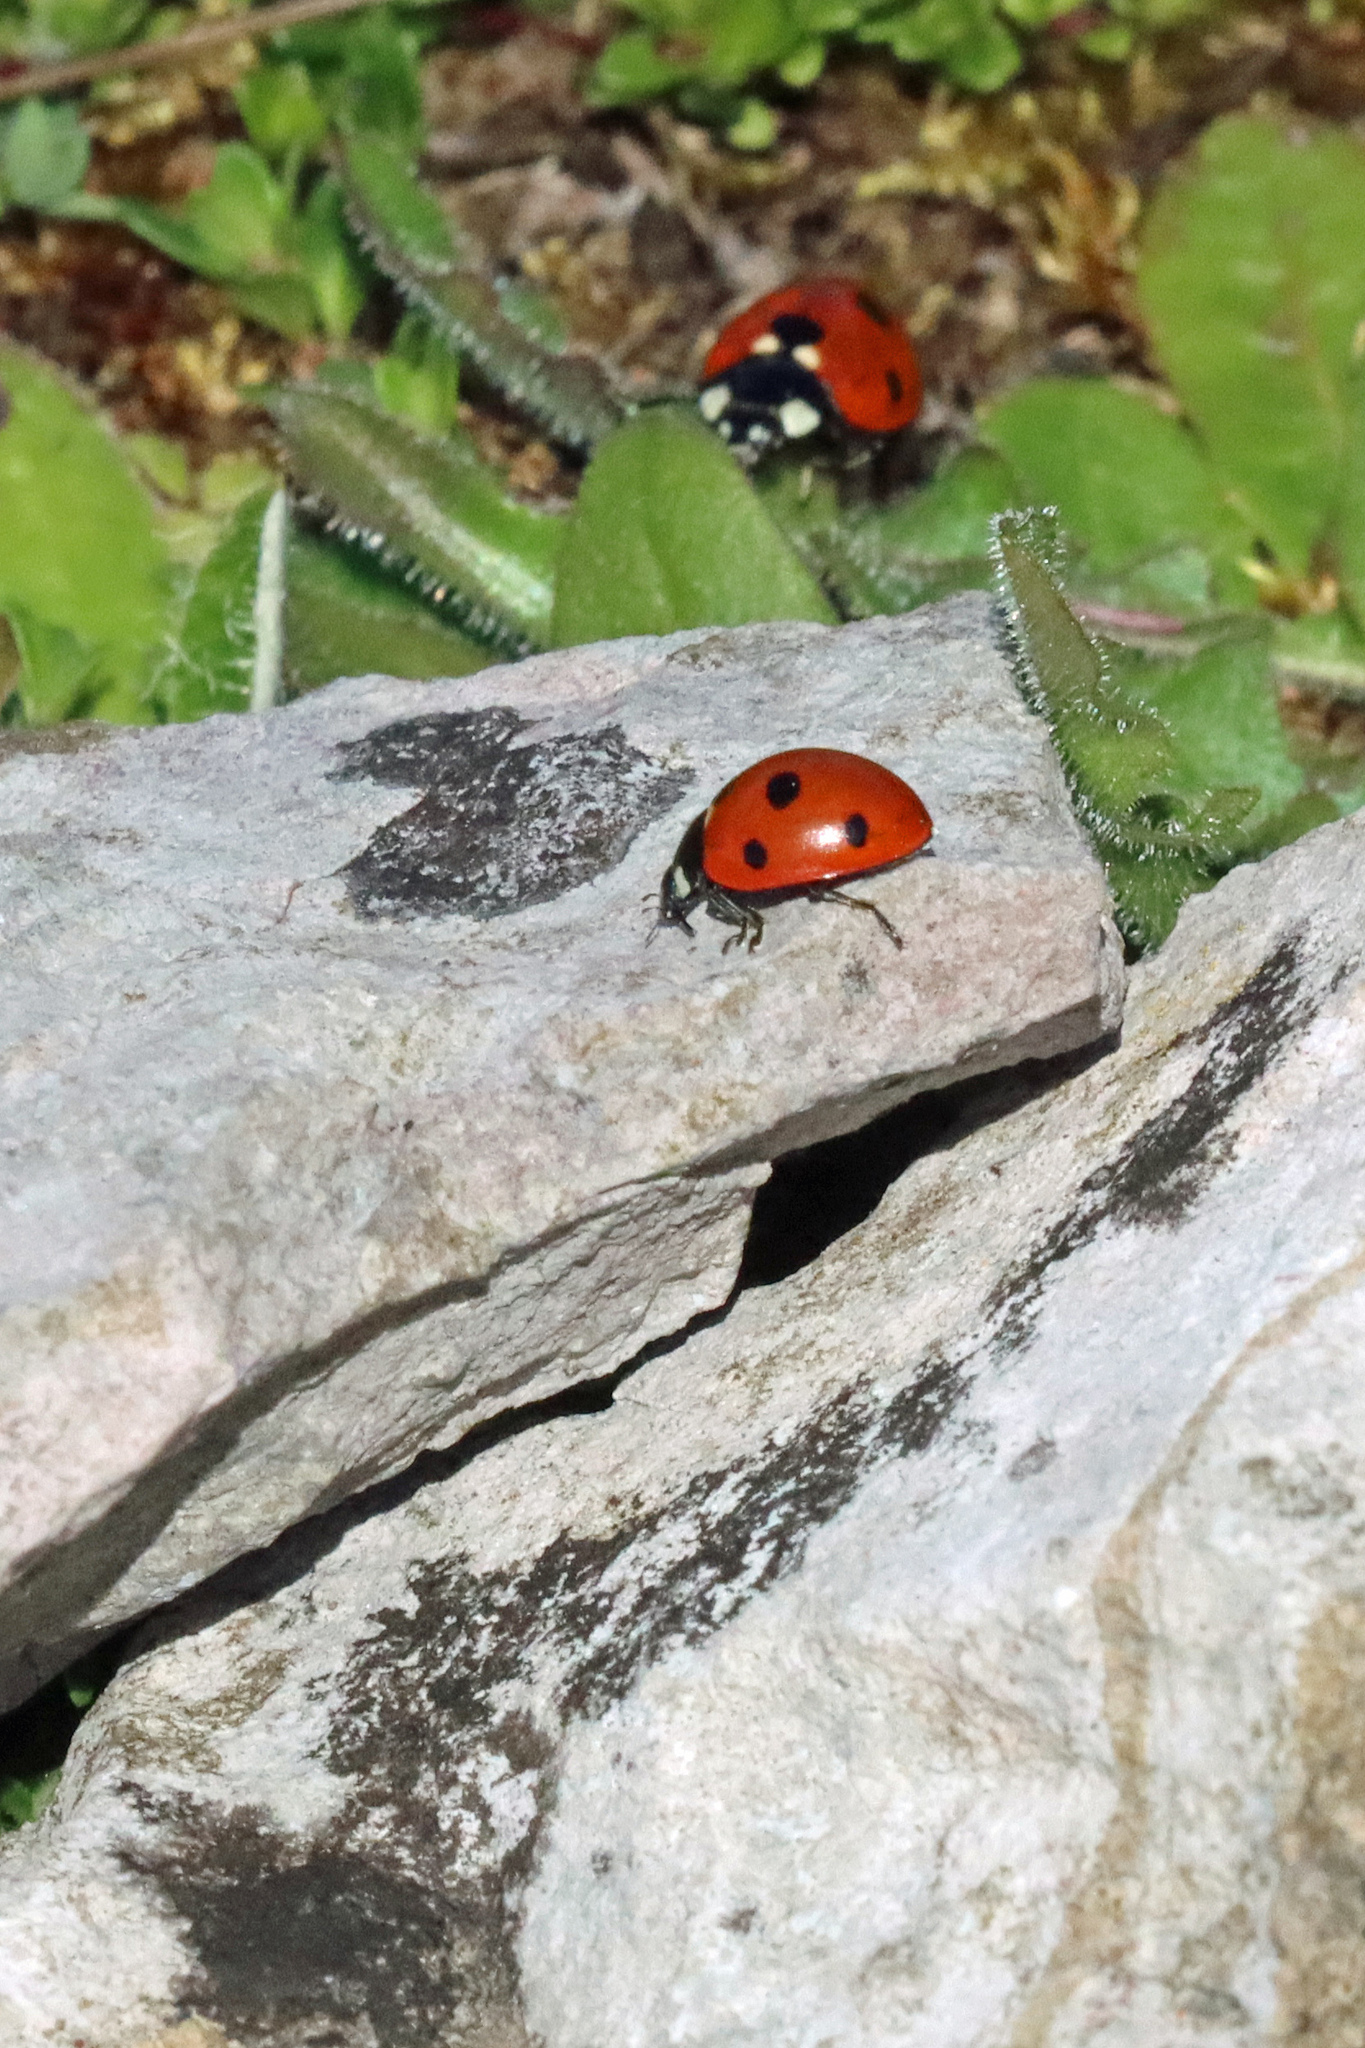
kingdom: Animalia
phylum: Arthropoda
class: Insecta
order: Coleoptera
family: Coccinellidae
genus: Coccinella
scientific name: Coccinella septempunctata
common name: Sevenspotted lady beetle
